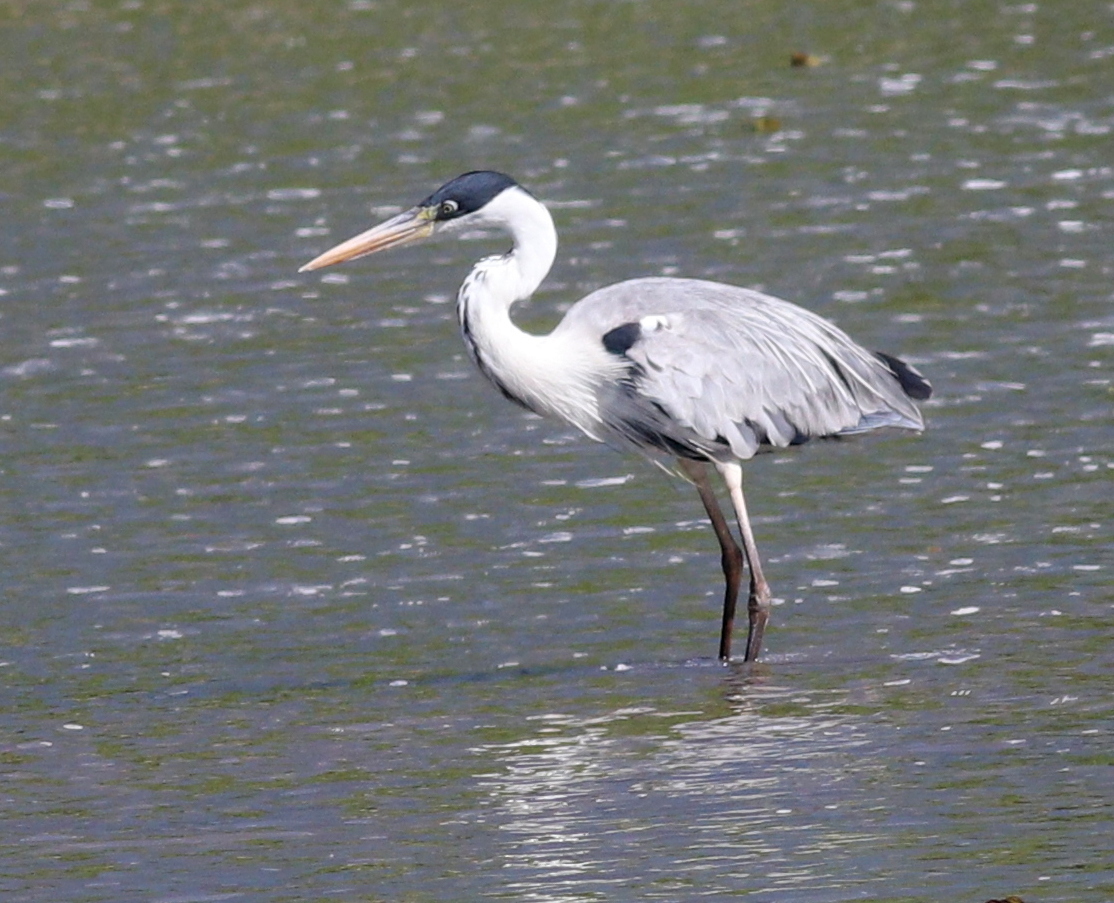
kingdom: Animalia
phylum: Chordata
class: Aves
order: Pelecaniformes
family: Ardeidae
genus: Ardea
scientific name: Ardea cocoi
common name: Cocoi heron
